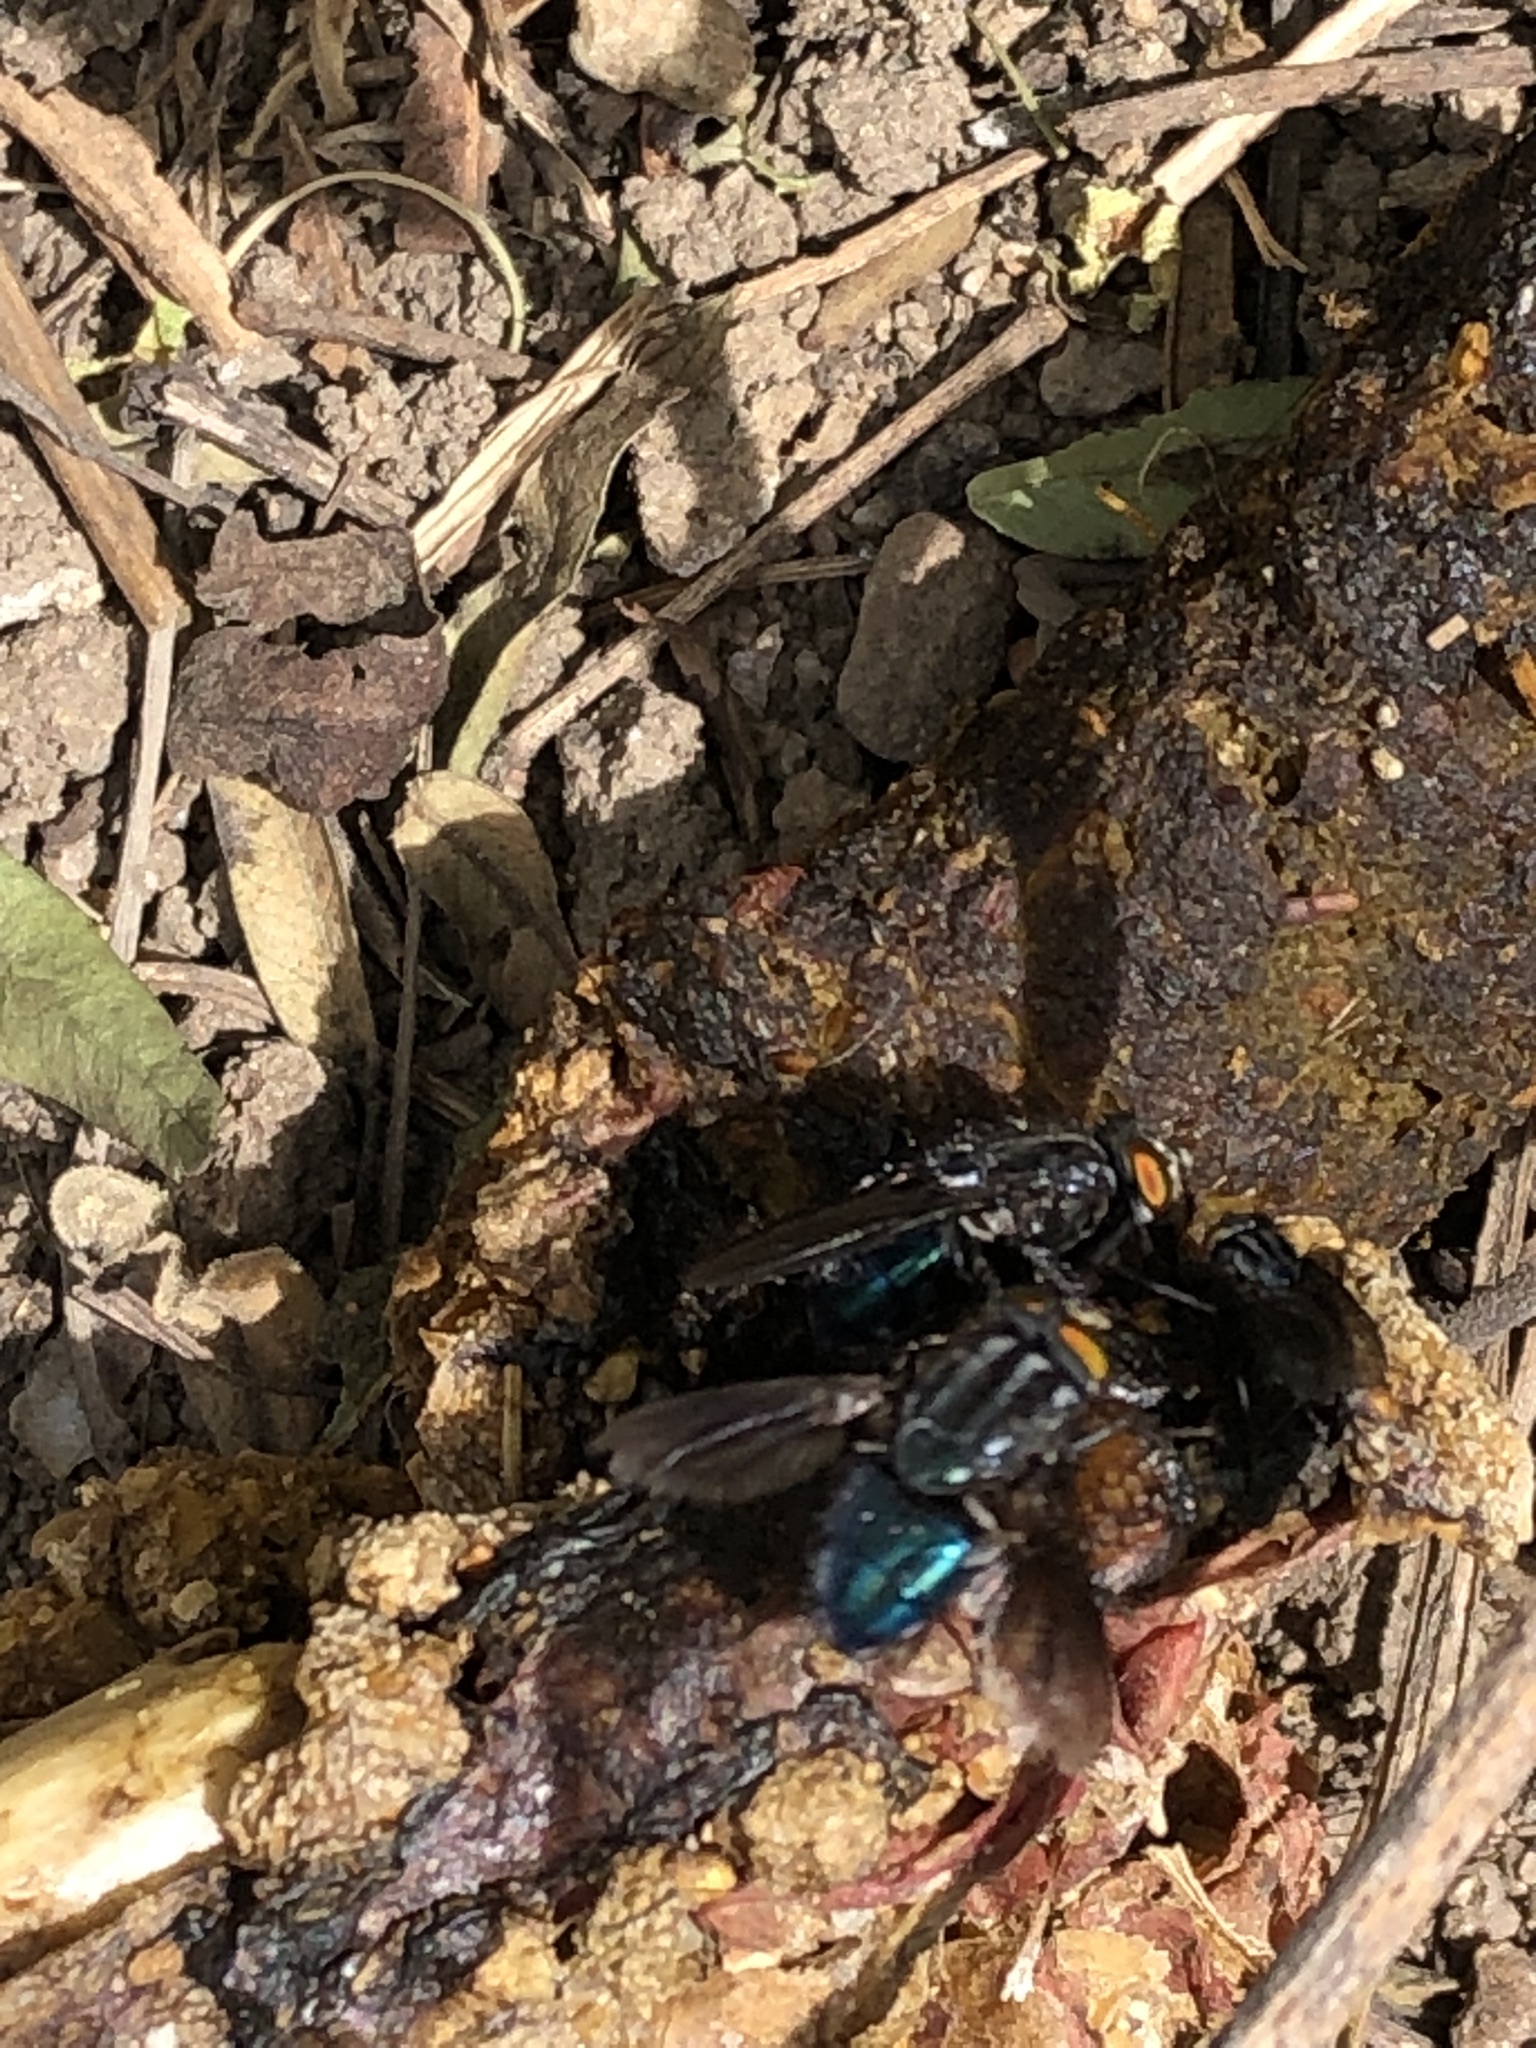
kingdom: Animalia
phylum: Arthropoda
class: Insecta
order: Diptera
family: Calliphoridae
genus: Sarconesia
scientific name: Sarconesia magellanica
